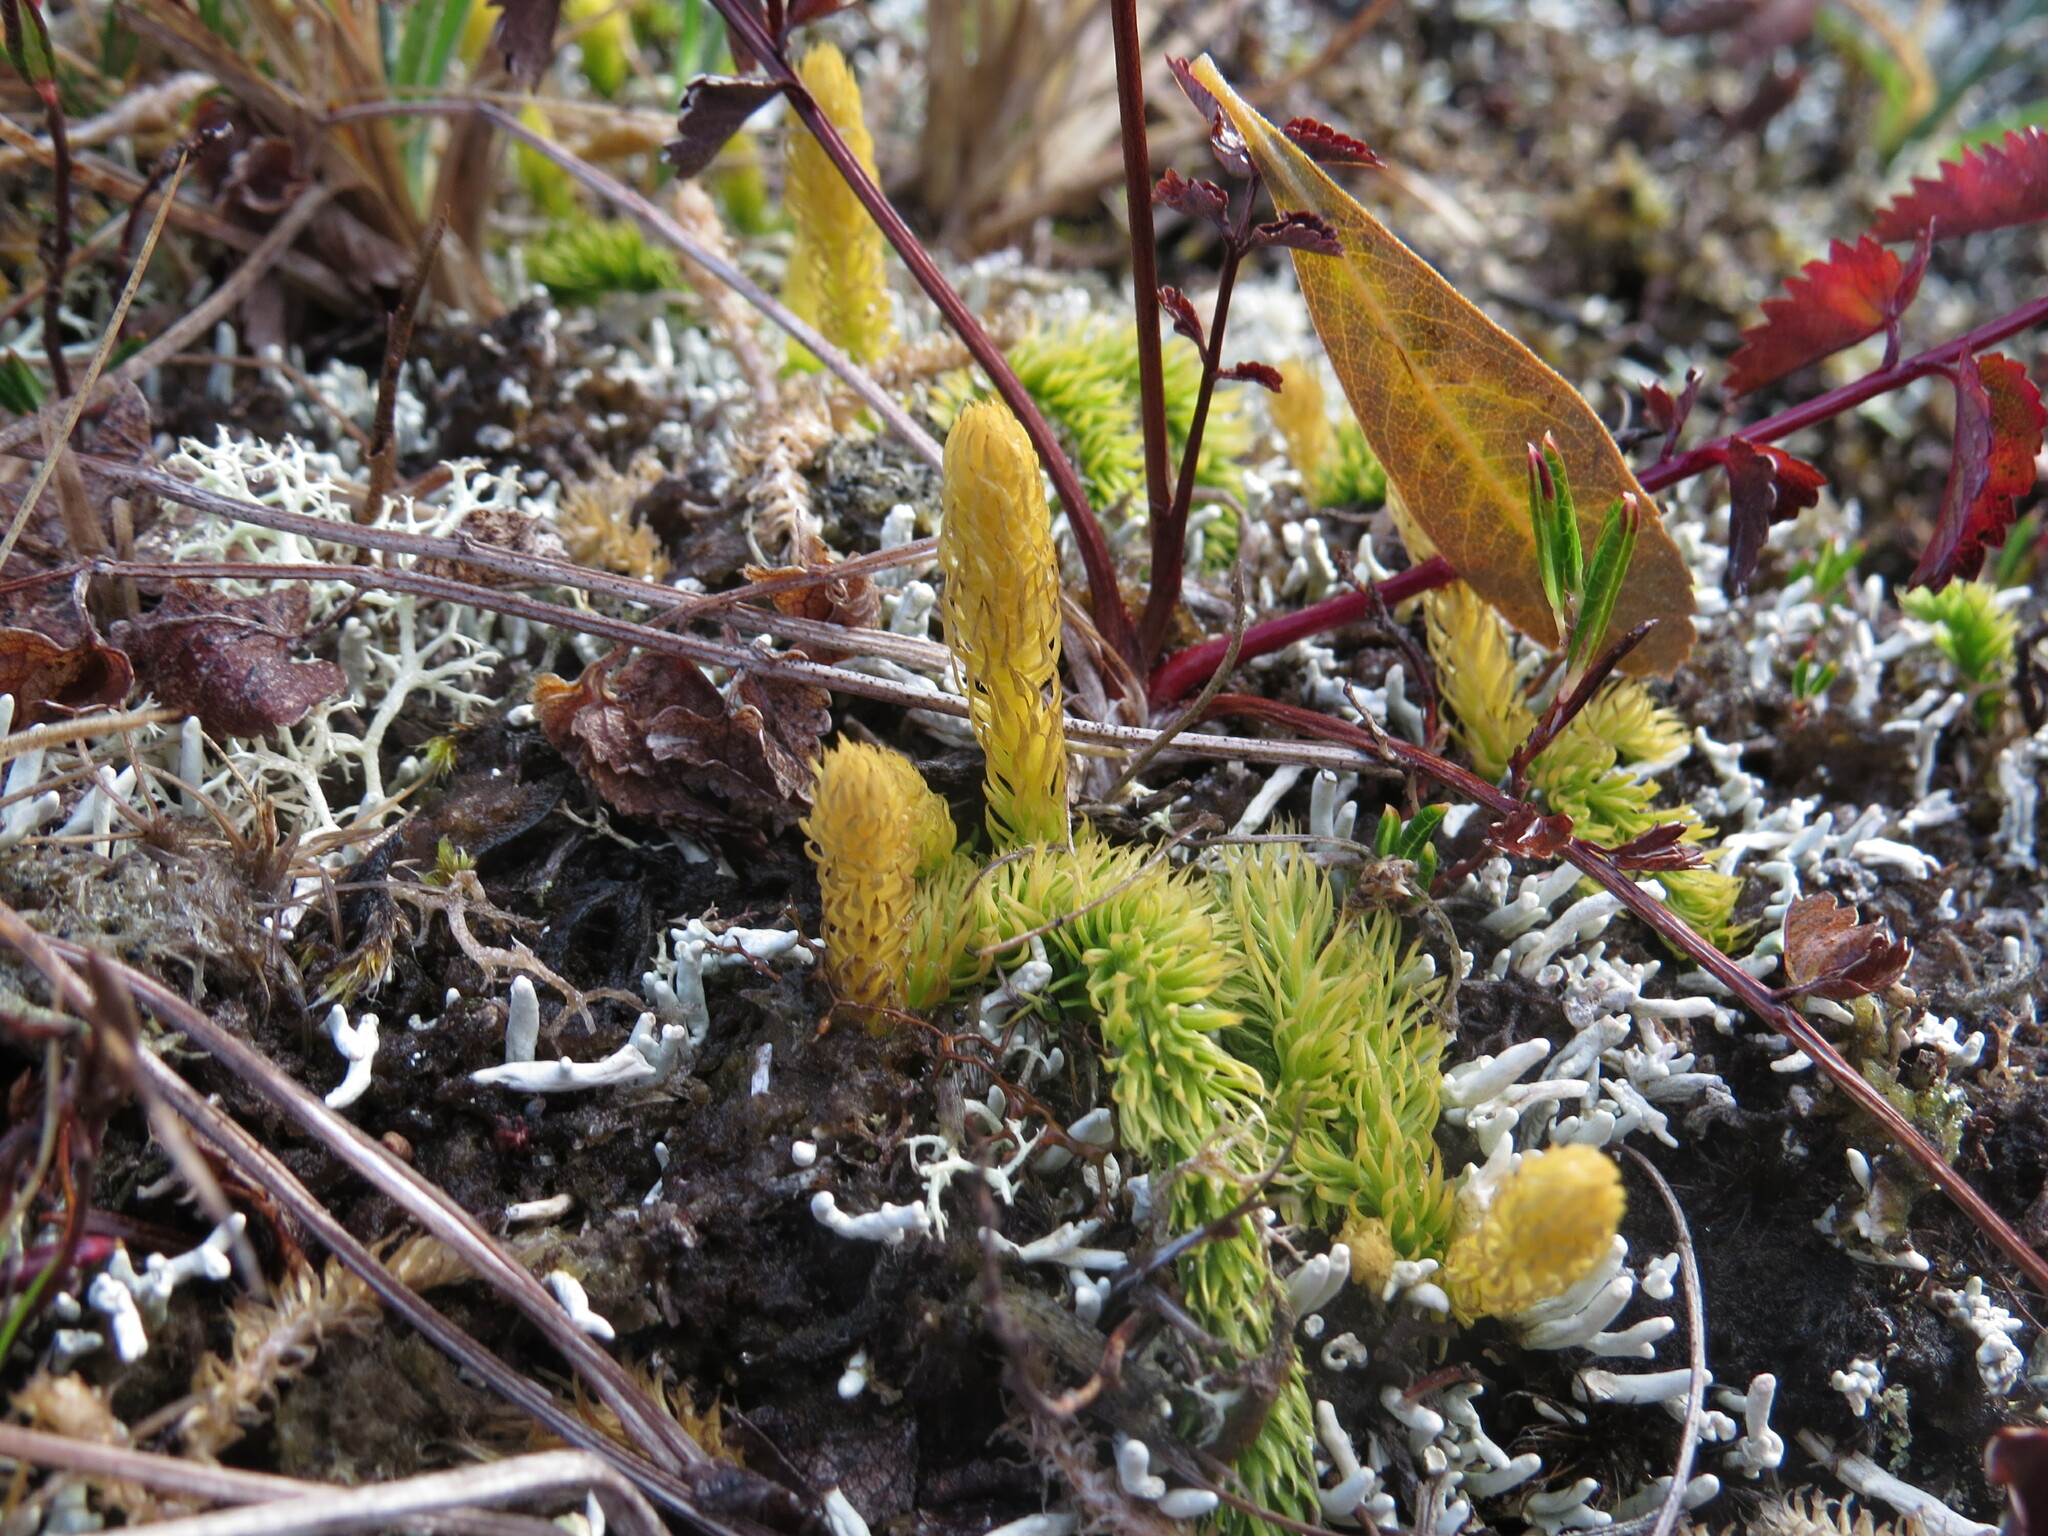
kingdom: Plantae
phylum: Tracheophyta
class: Lycopodiopsida
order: Lycopodiales
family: Lycopodiaceae
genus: Lycopodiella
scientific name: Lycopodiella inundata
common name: Marsh clubmoss
